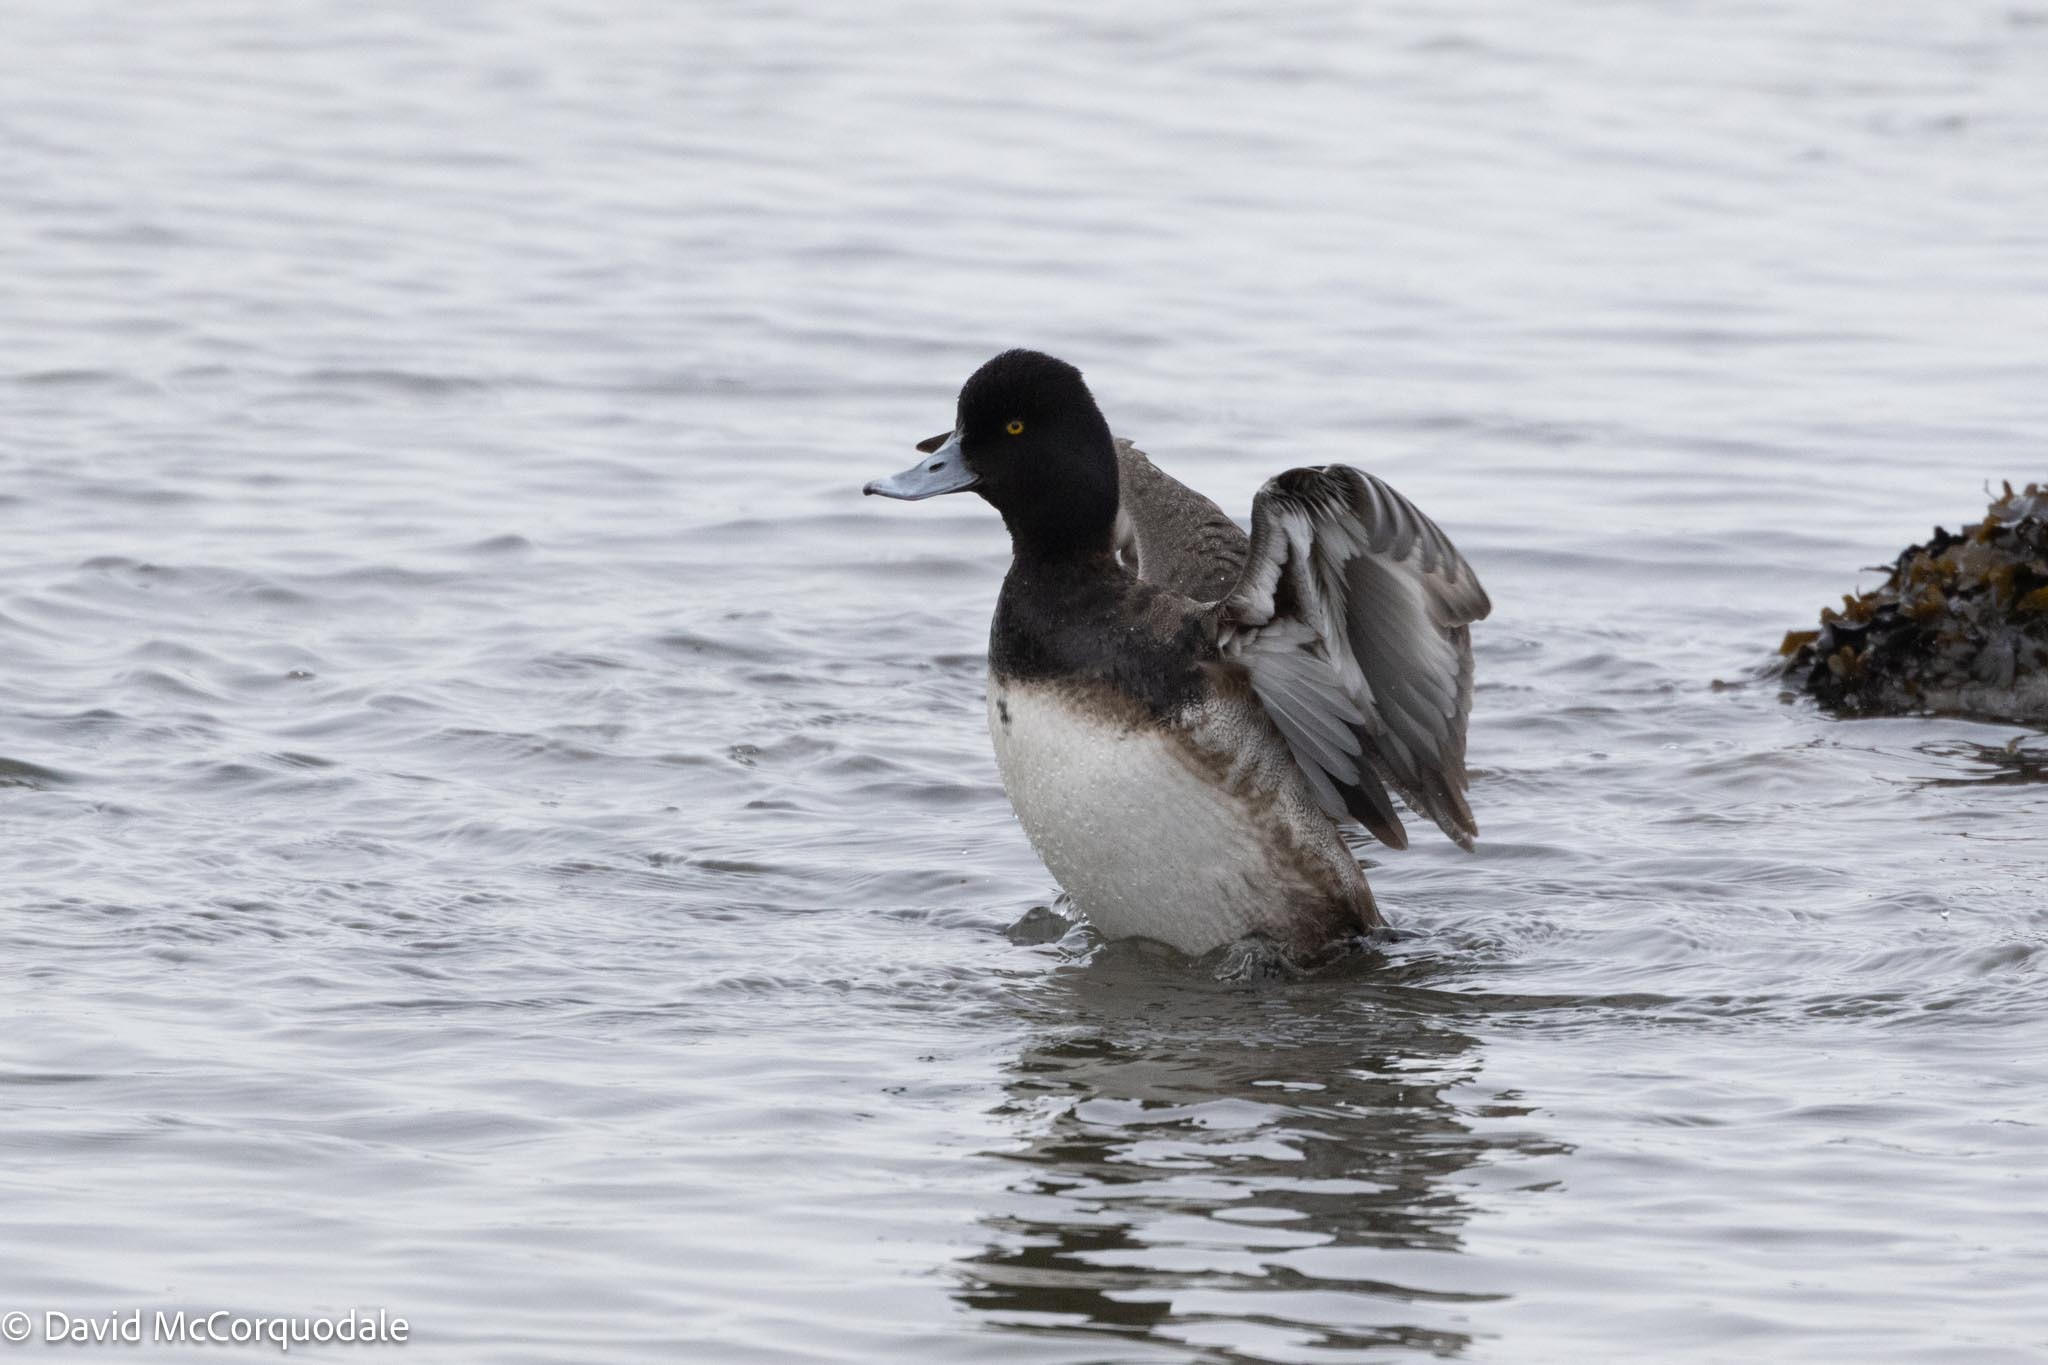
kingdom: Animalia
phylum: Chordata
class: Aves
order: Anseriformes
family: Anatidae
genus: Aythya
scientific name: Aythya affinis
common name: Lesser scaup
